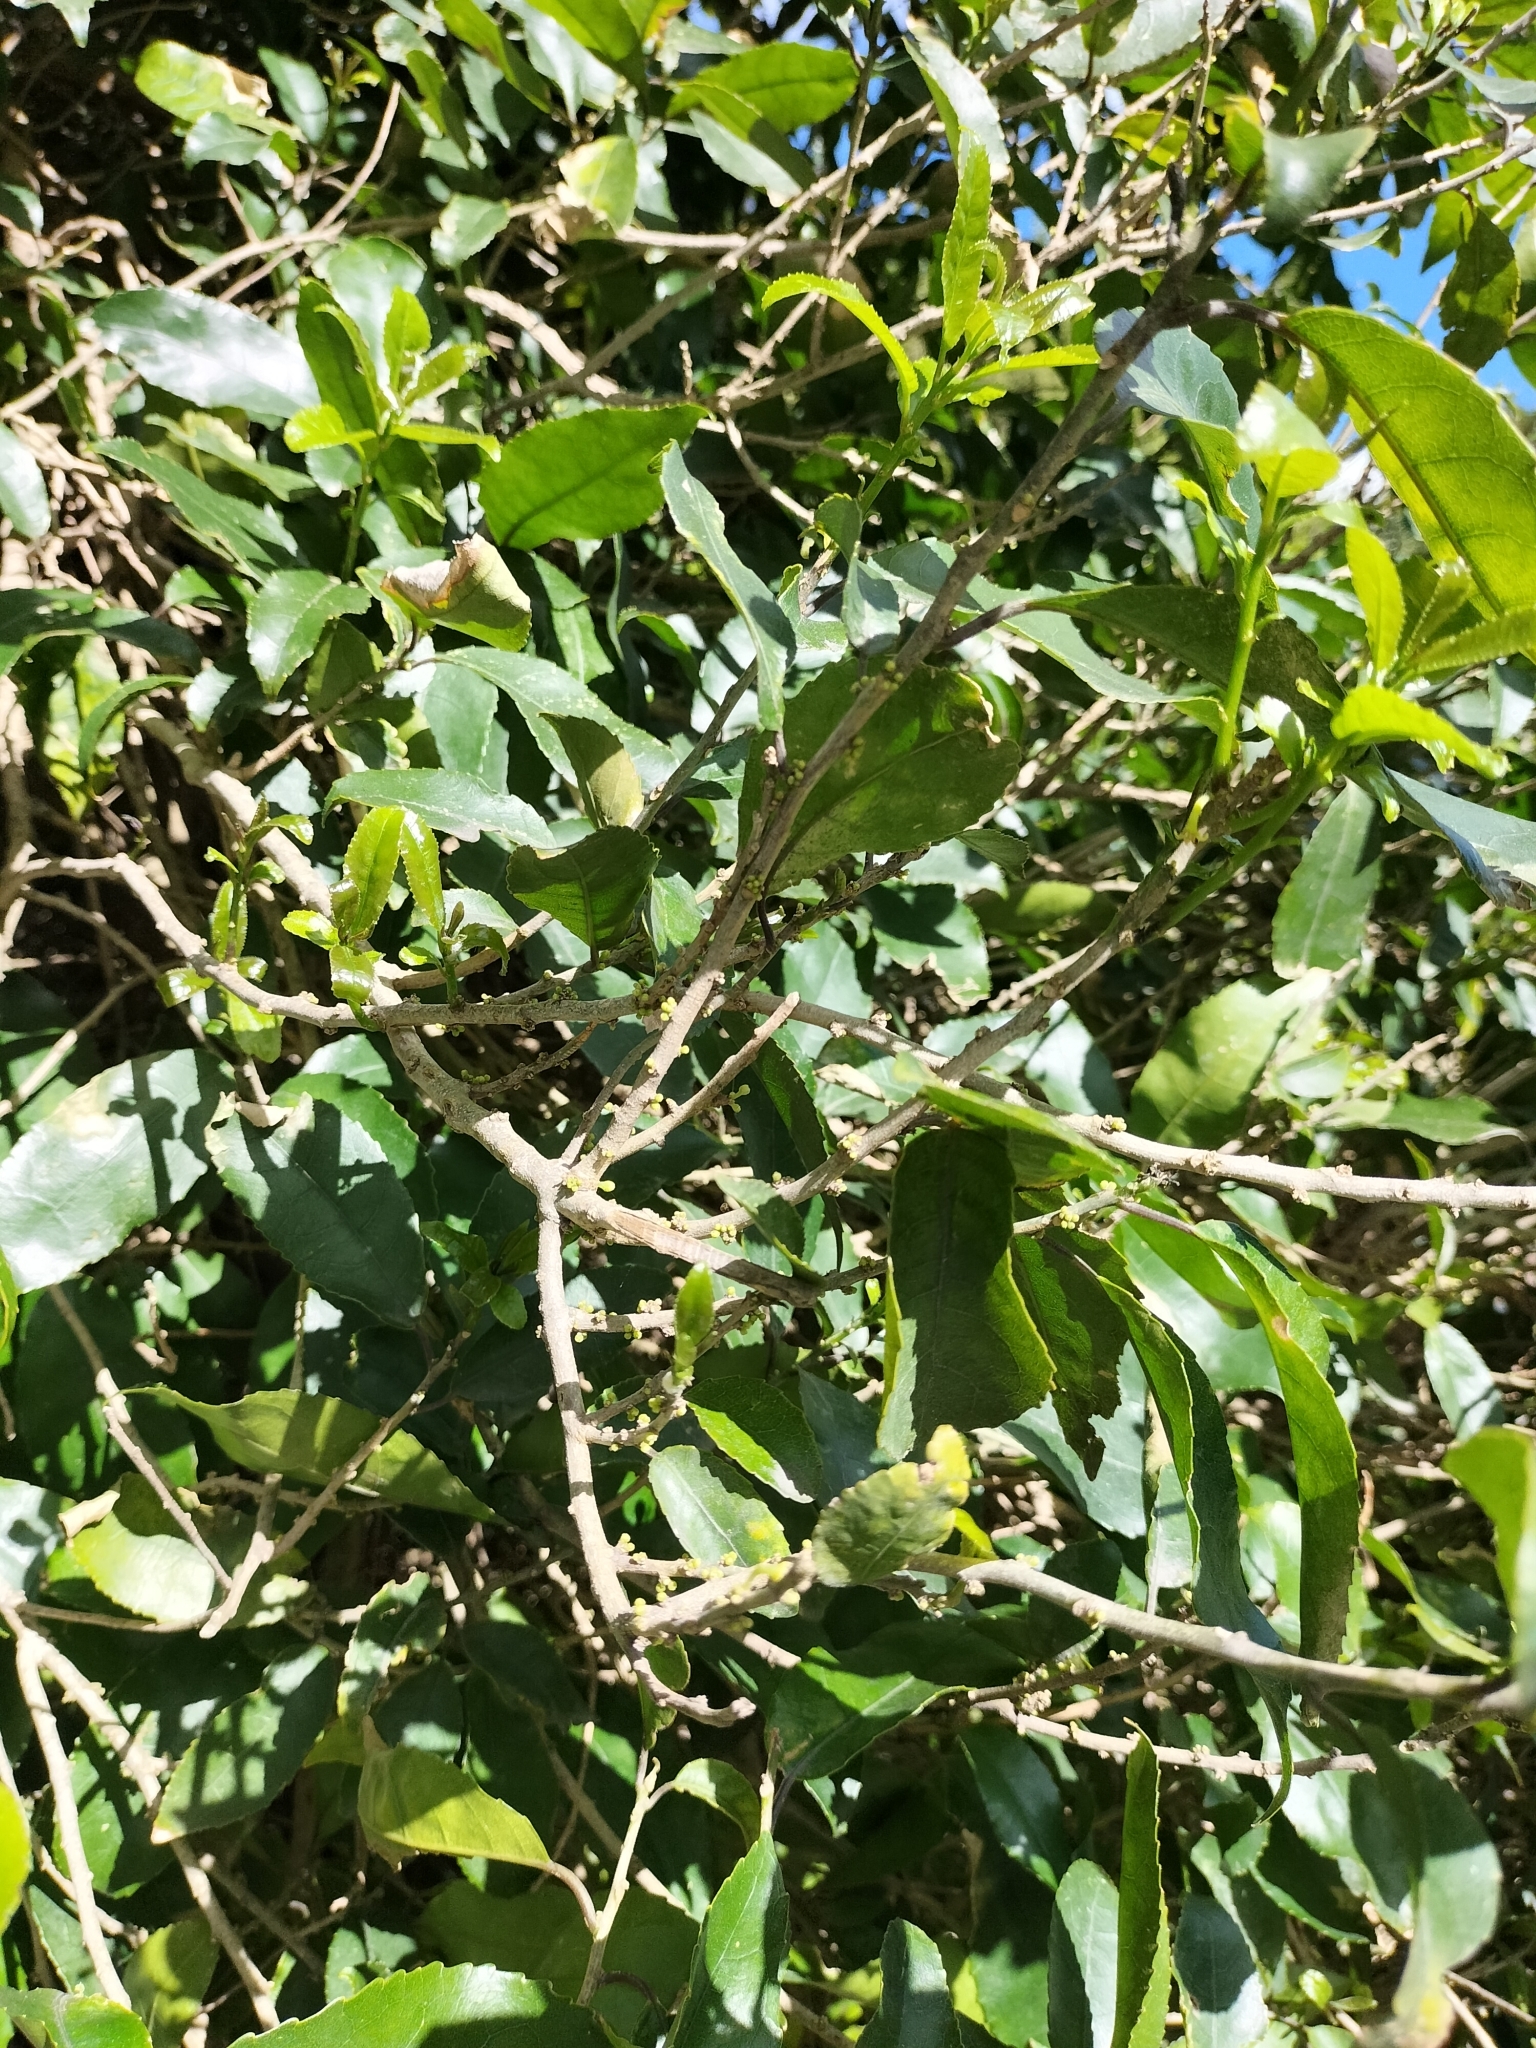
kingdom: Plantae
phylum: Tracheophyta
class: Magnoliopsida
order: Malpighiales
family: Violaceae
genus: Melicytus
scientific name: Melicytus ramiflorus
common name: Mahoe
